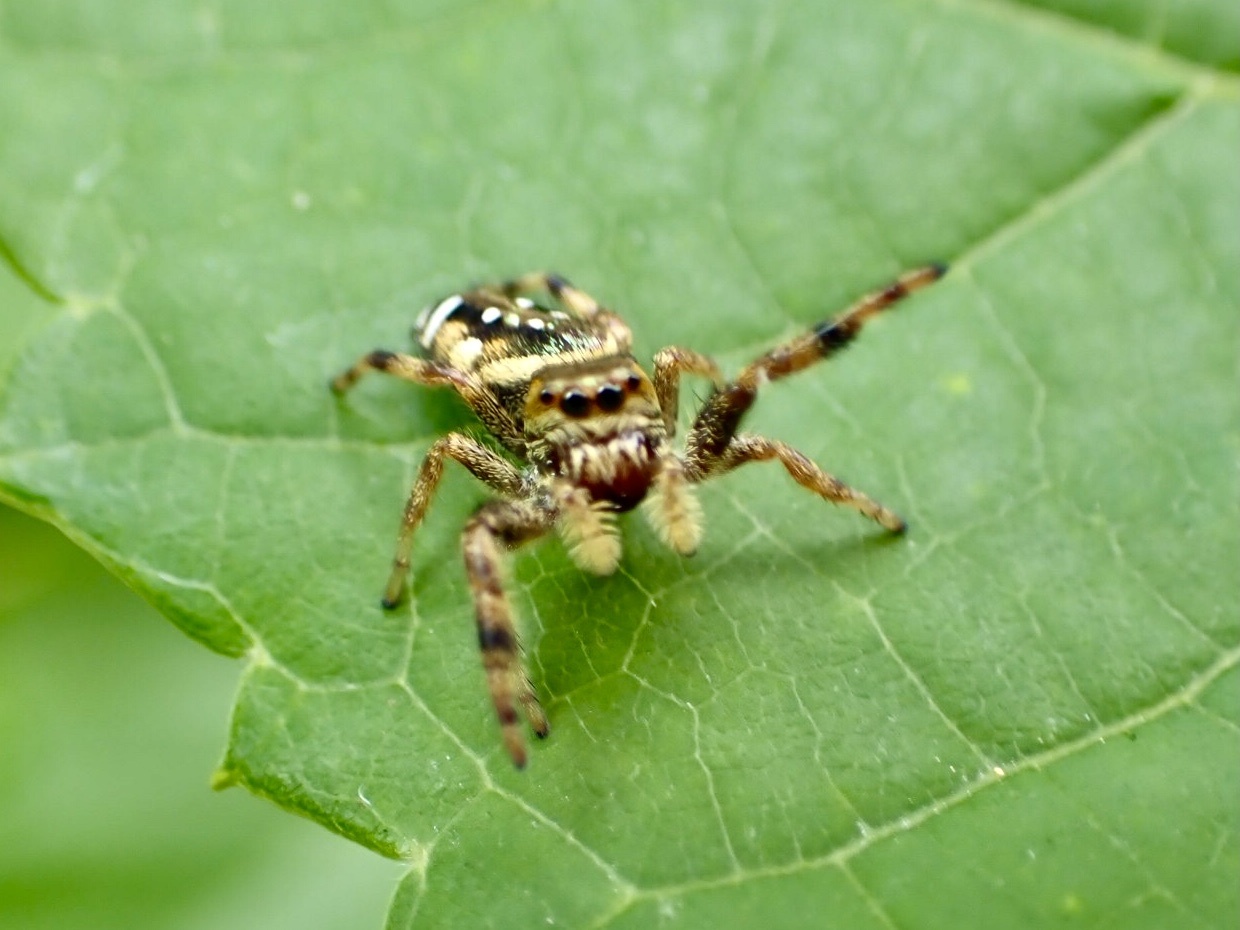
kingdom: Animalia
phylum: Arthropoda
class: Arachnida
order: Araneae
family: Salticidae
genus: Paraphidippus
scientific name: Paraphidippus aurantius
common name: Jumping spiders
